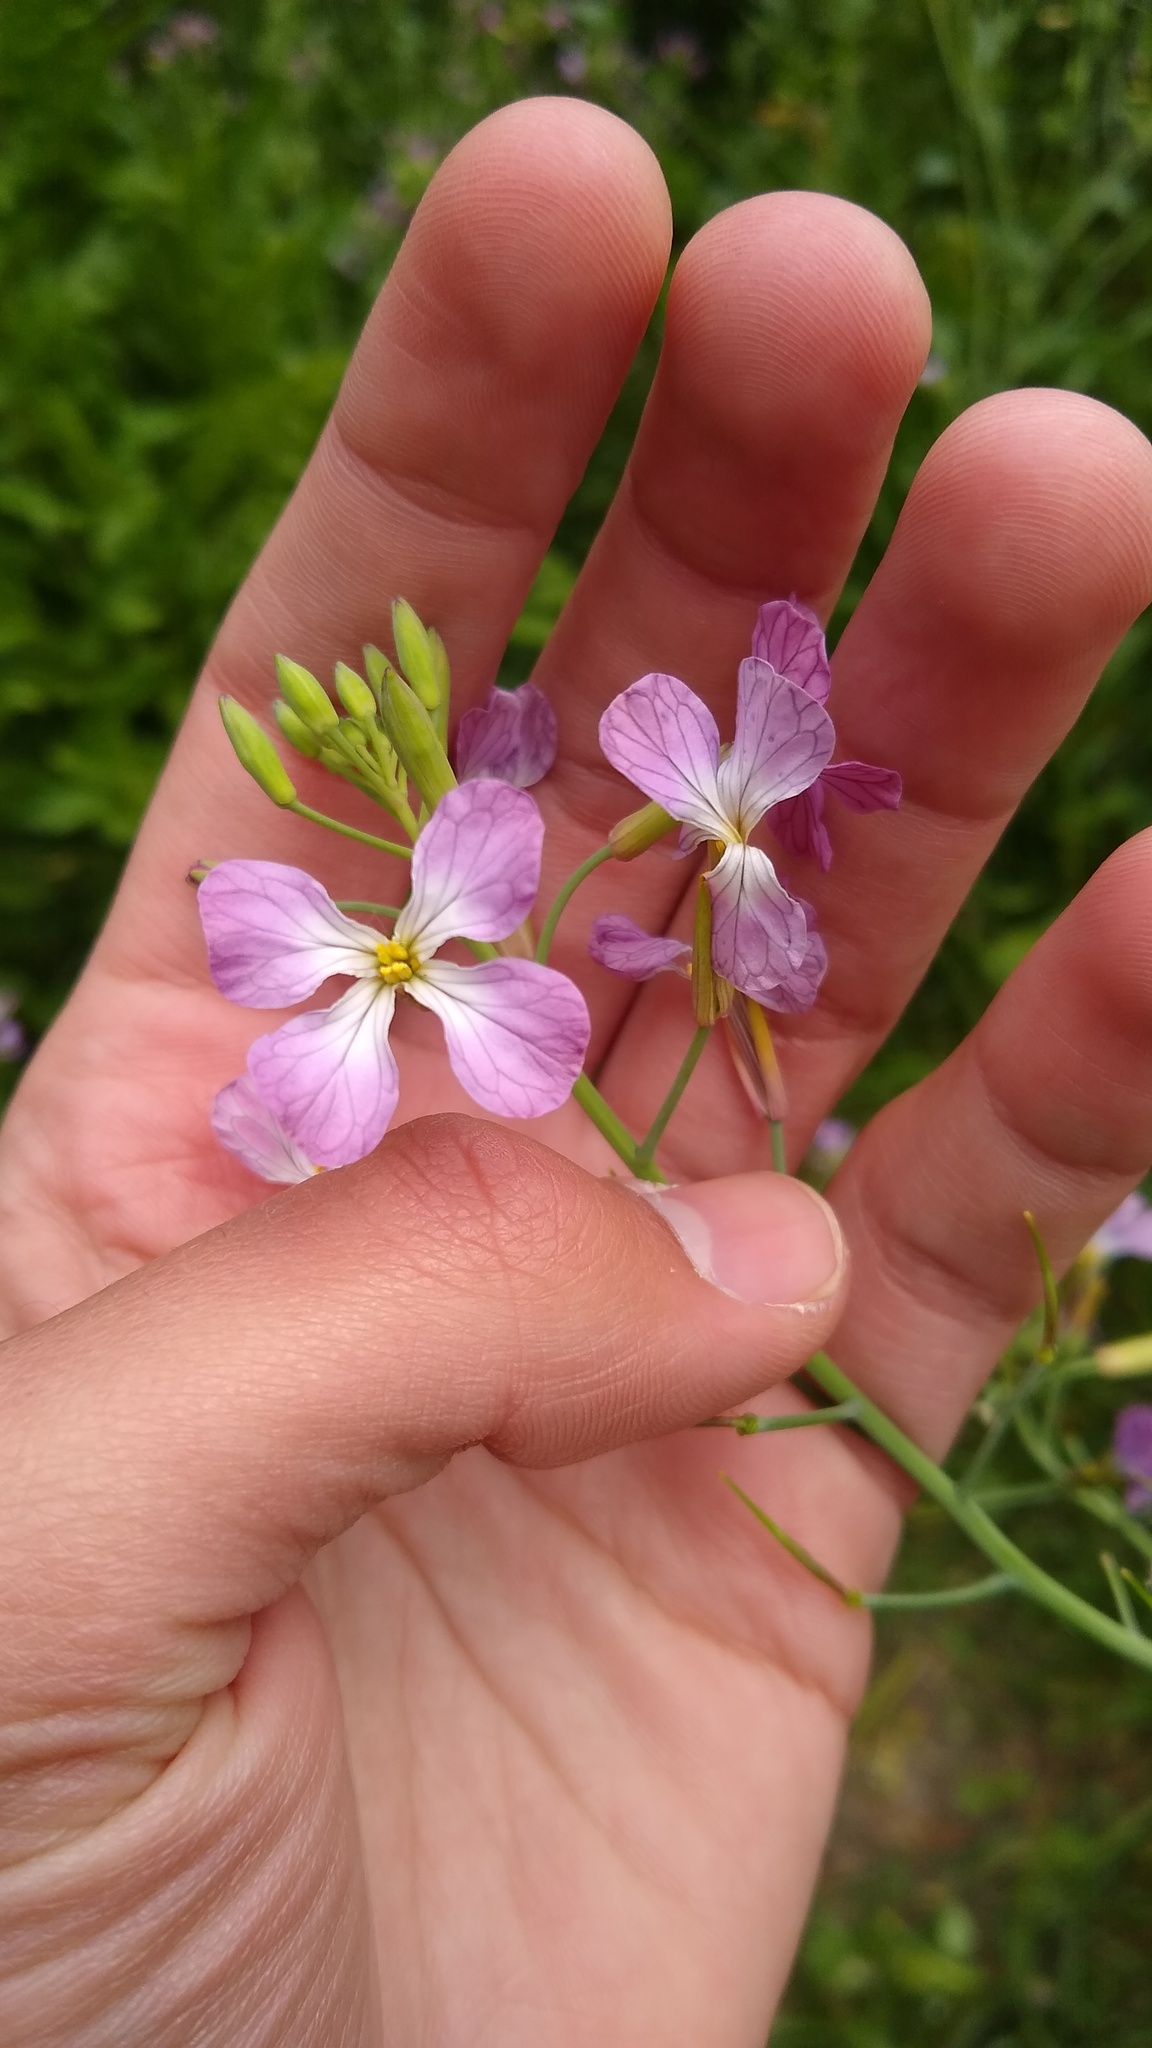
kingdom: Plantae
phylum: Tracheophyta
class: Magnoliopsida
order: Brassicales
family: Brassicaceae
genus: Raphanus
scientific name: Raphanus sativus
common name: Cultivated radish
